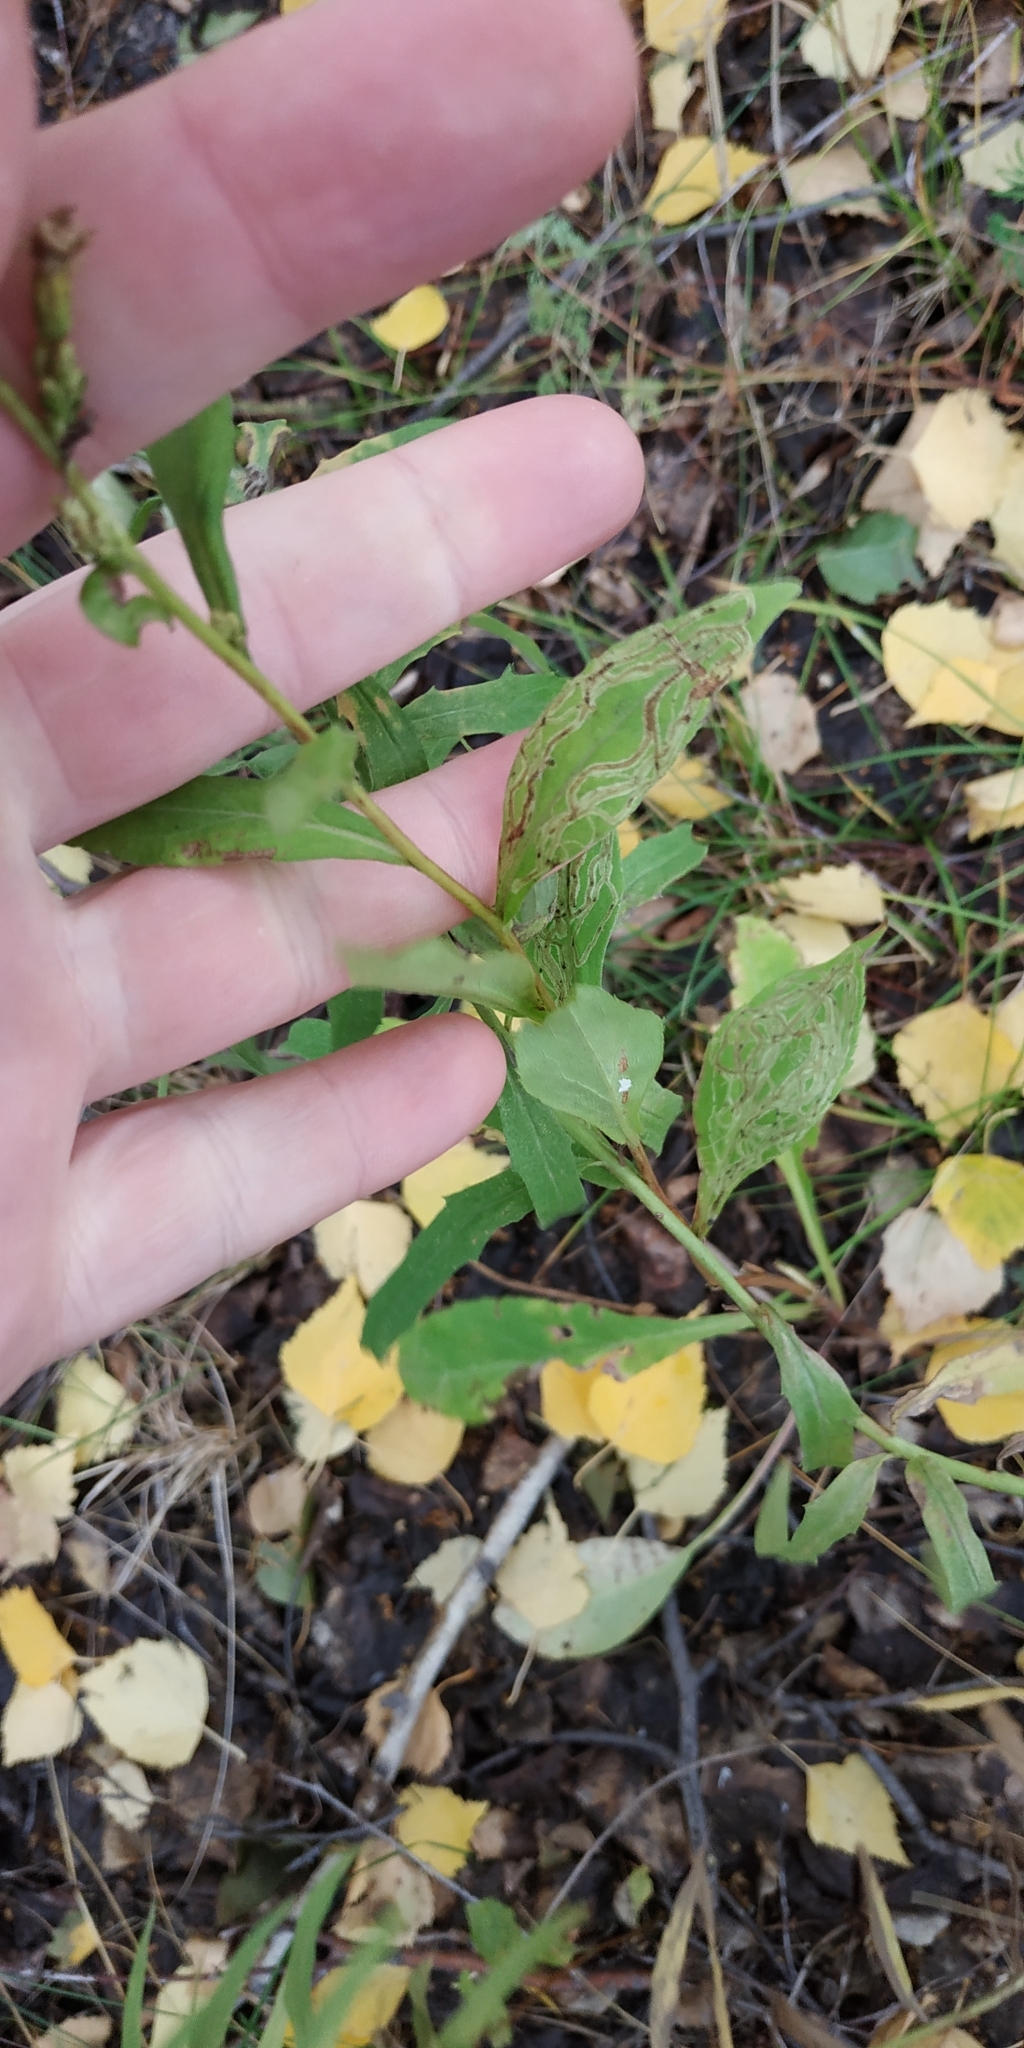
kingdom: Plantae
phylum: Tracheophyta
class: Magnoliopsida
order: Asterales
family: Asteraceae
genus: Solidago
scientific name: Solidago virgaurea
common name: Goldenrod
